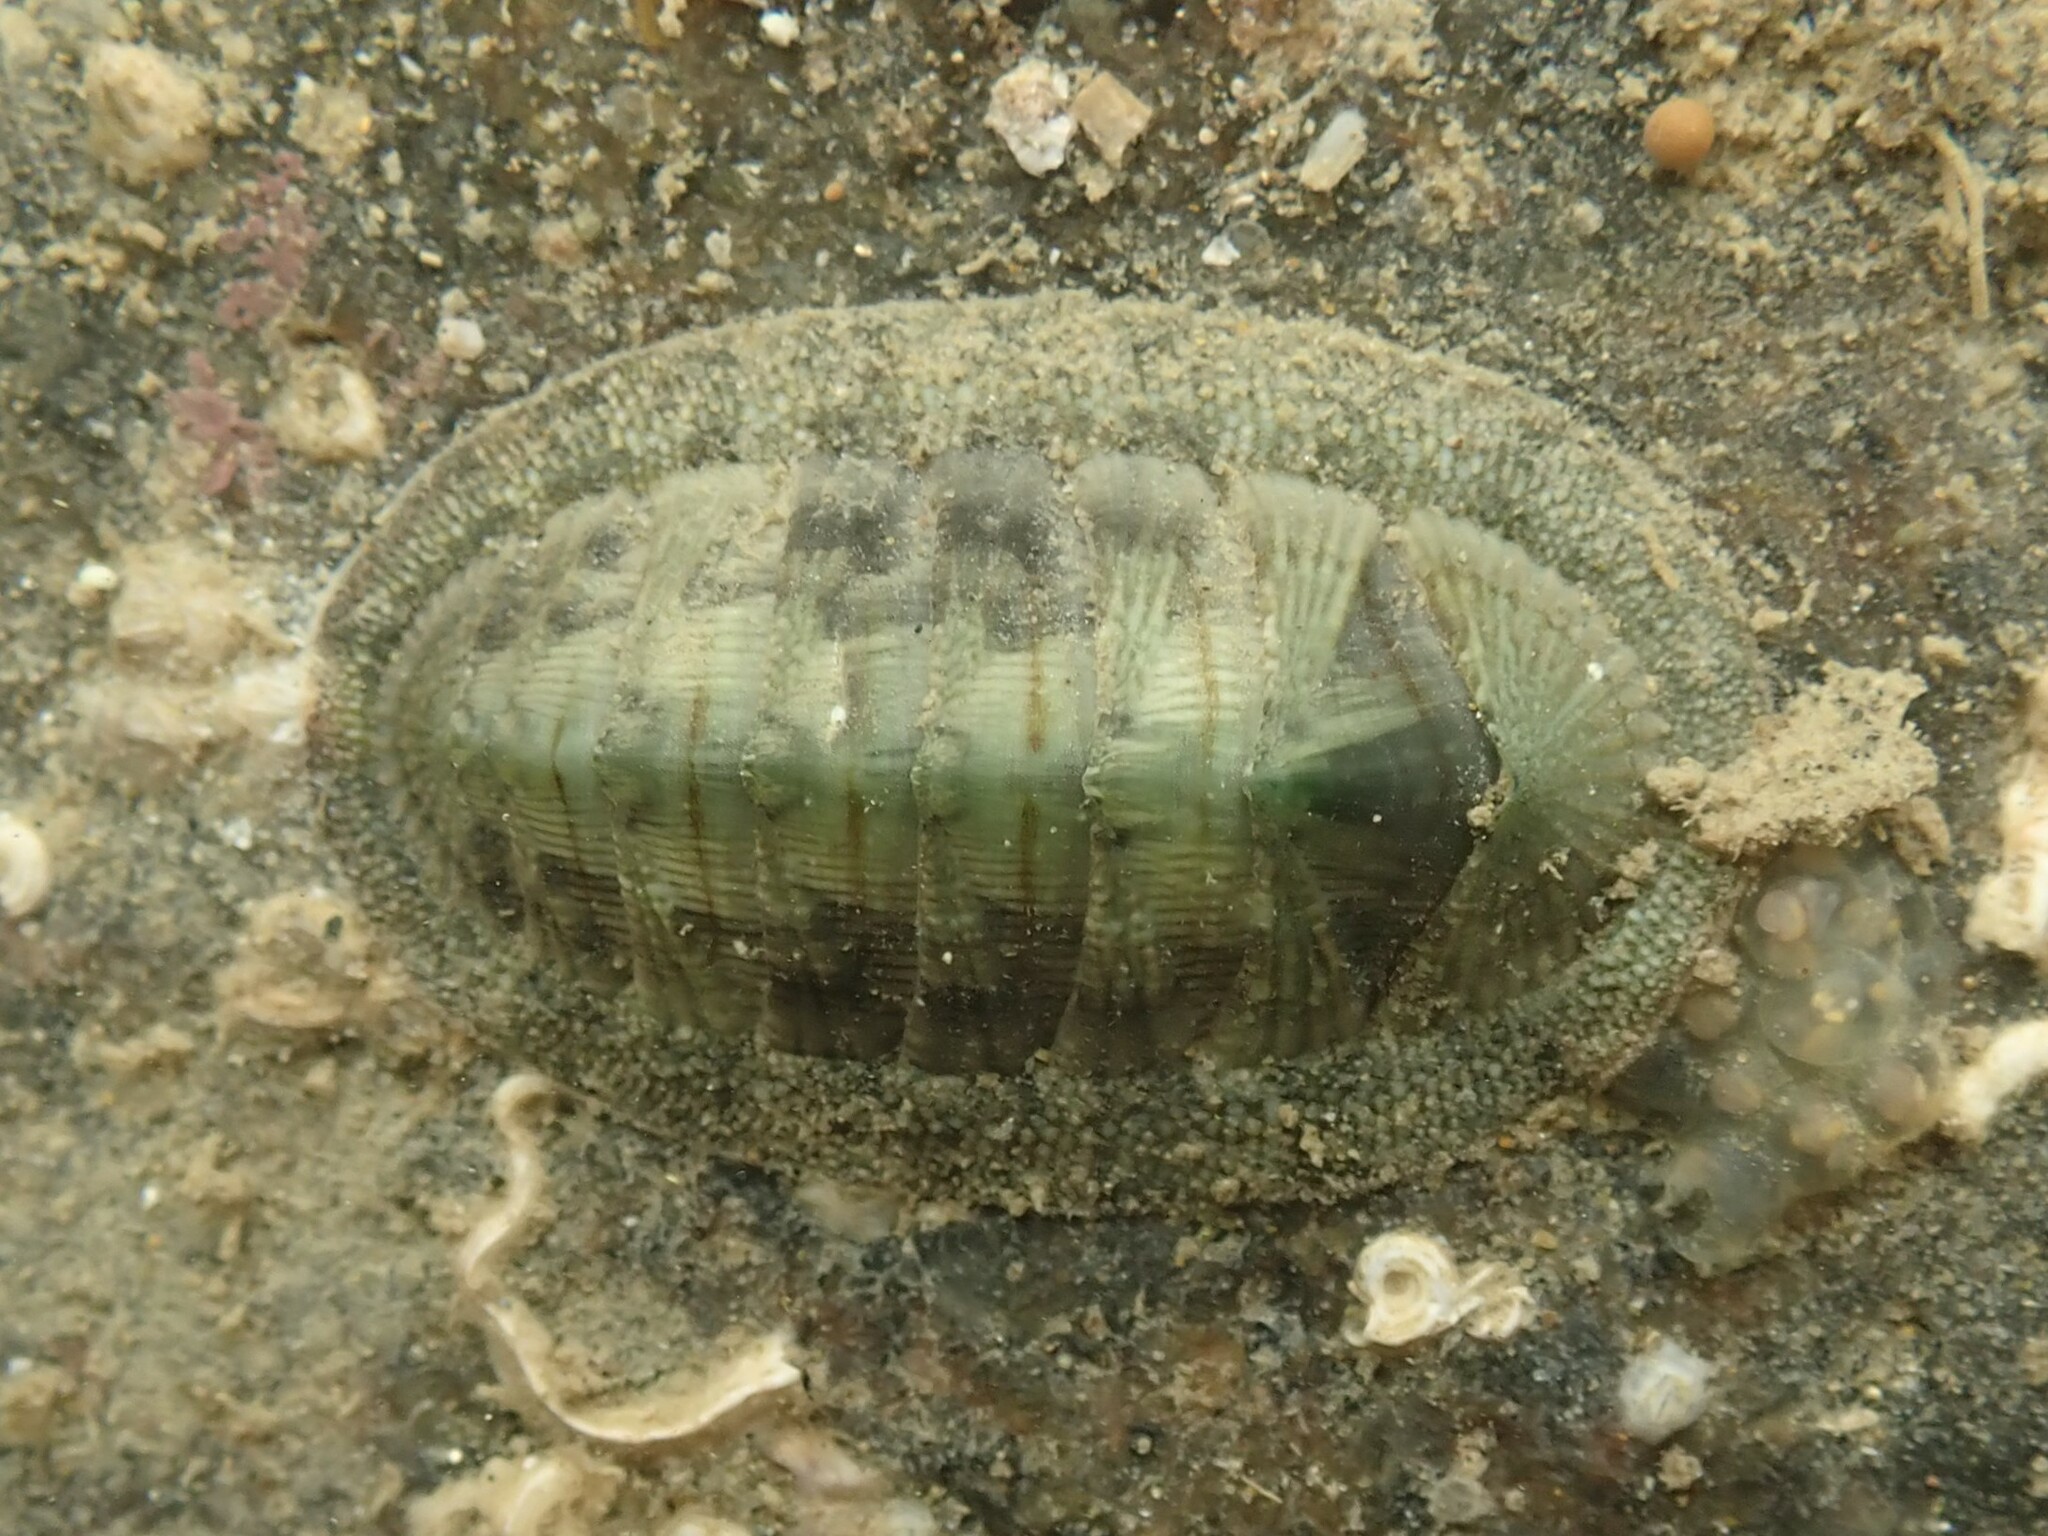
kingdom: Animalia
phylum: Mollusca
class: Polyplacophora
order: Chitonida
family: Chitonidae
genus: Rhyssoplax
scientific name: Rhyssoplax aerea
